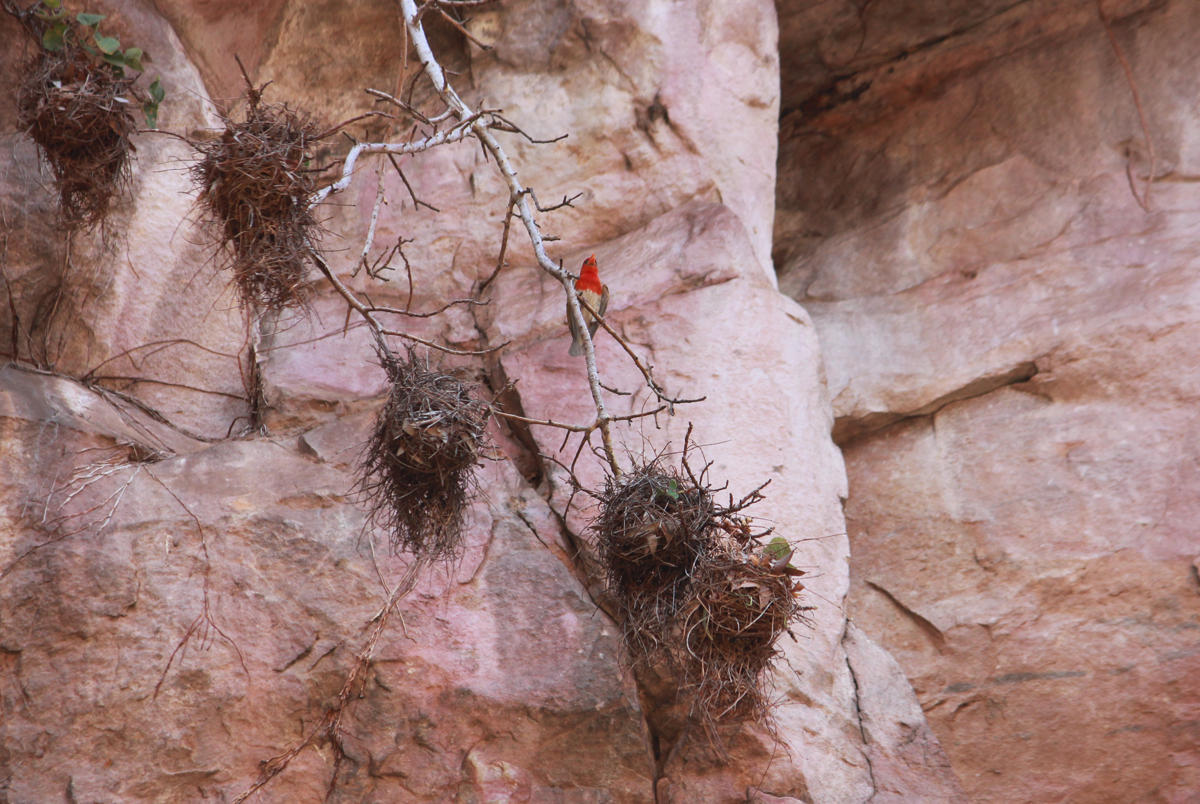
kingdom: Animalia
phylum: Chordata
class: Aves
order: Passeriformes
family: Ploceidae
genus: Anaplectes
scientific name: Anaplectes rubriceps
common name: Red-headed weaver
